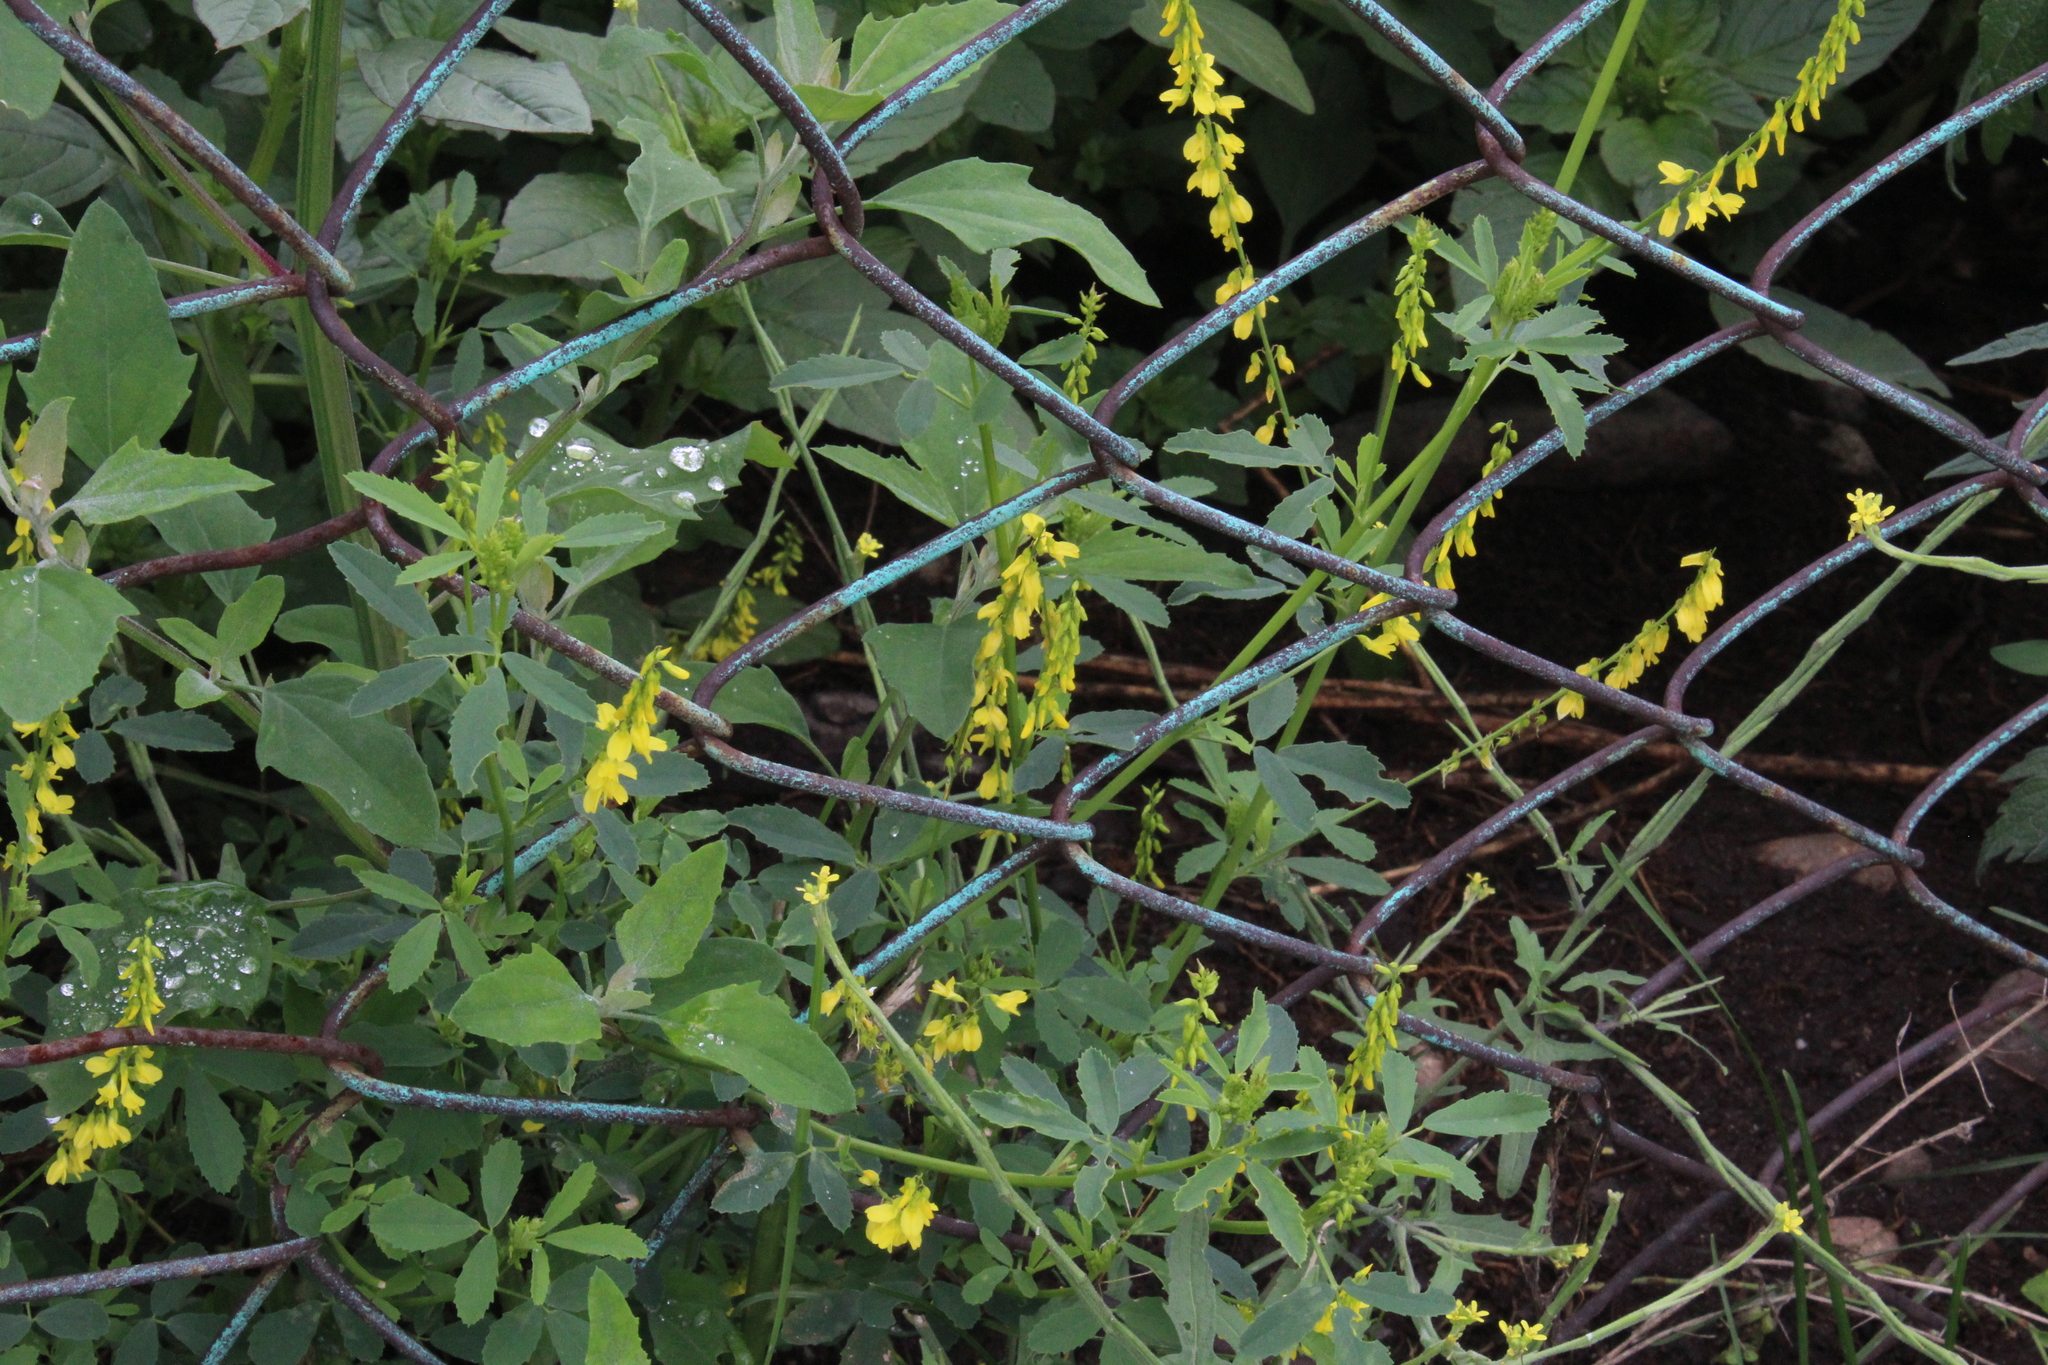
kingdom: Plantae
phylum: Tracheophyta
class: Magnoliopsida
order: Fabales
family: Fabaceae
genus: Melilotus
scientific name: Melilotus officinalis
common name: Sweetclover
